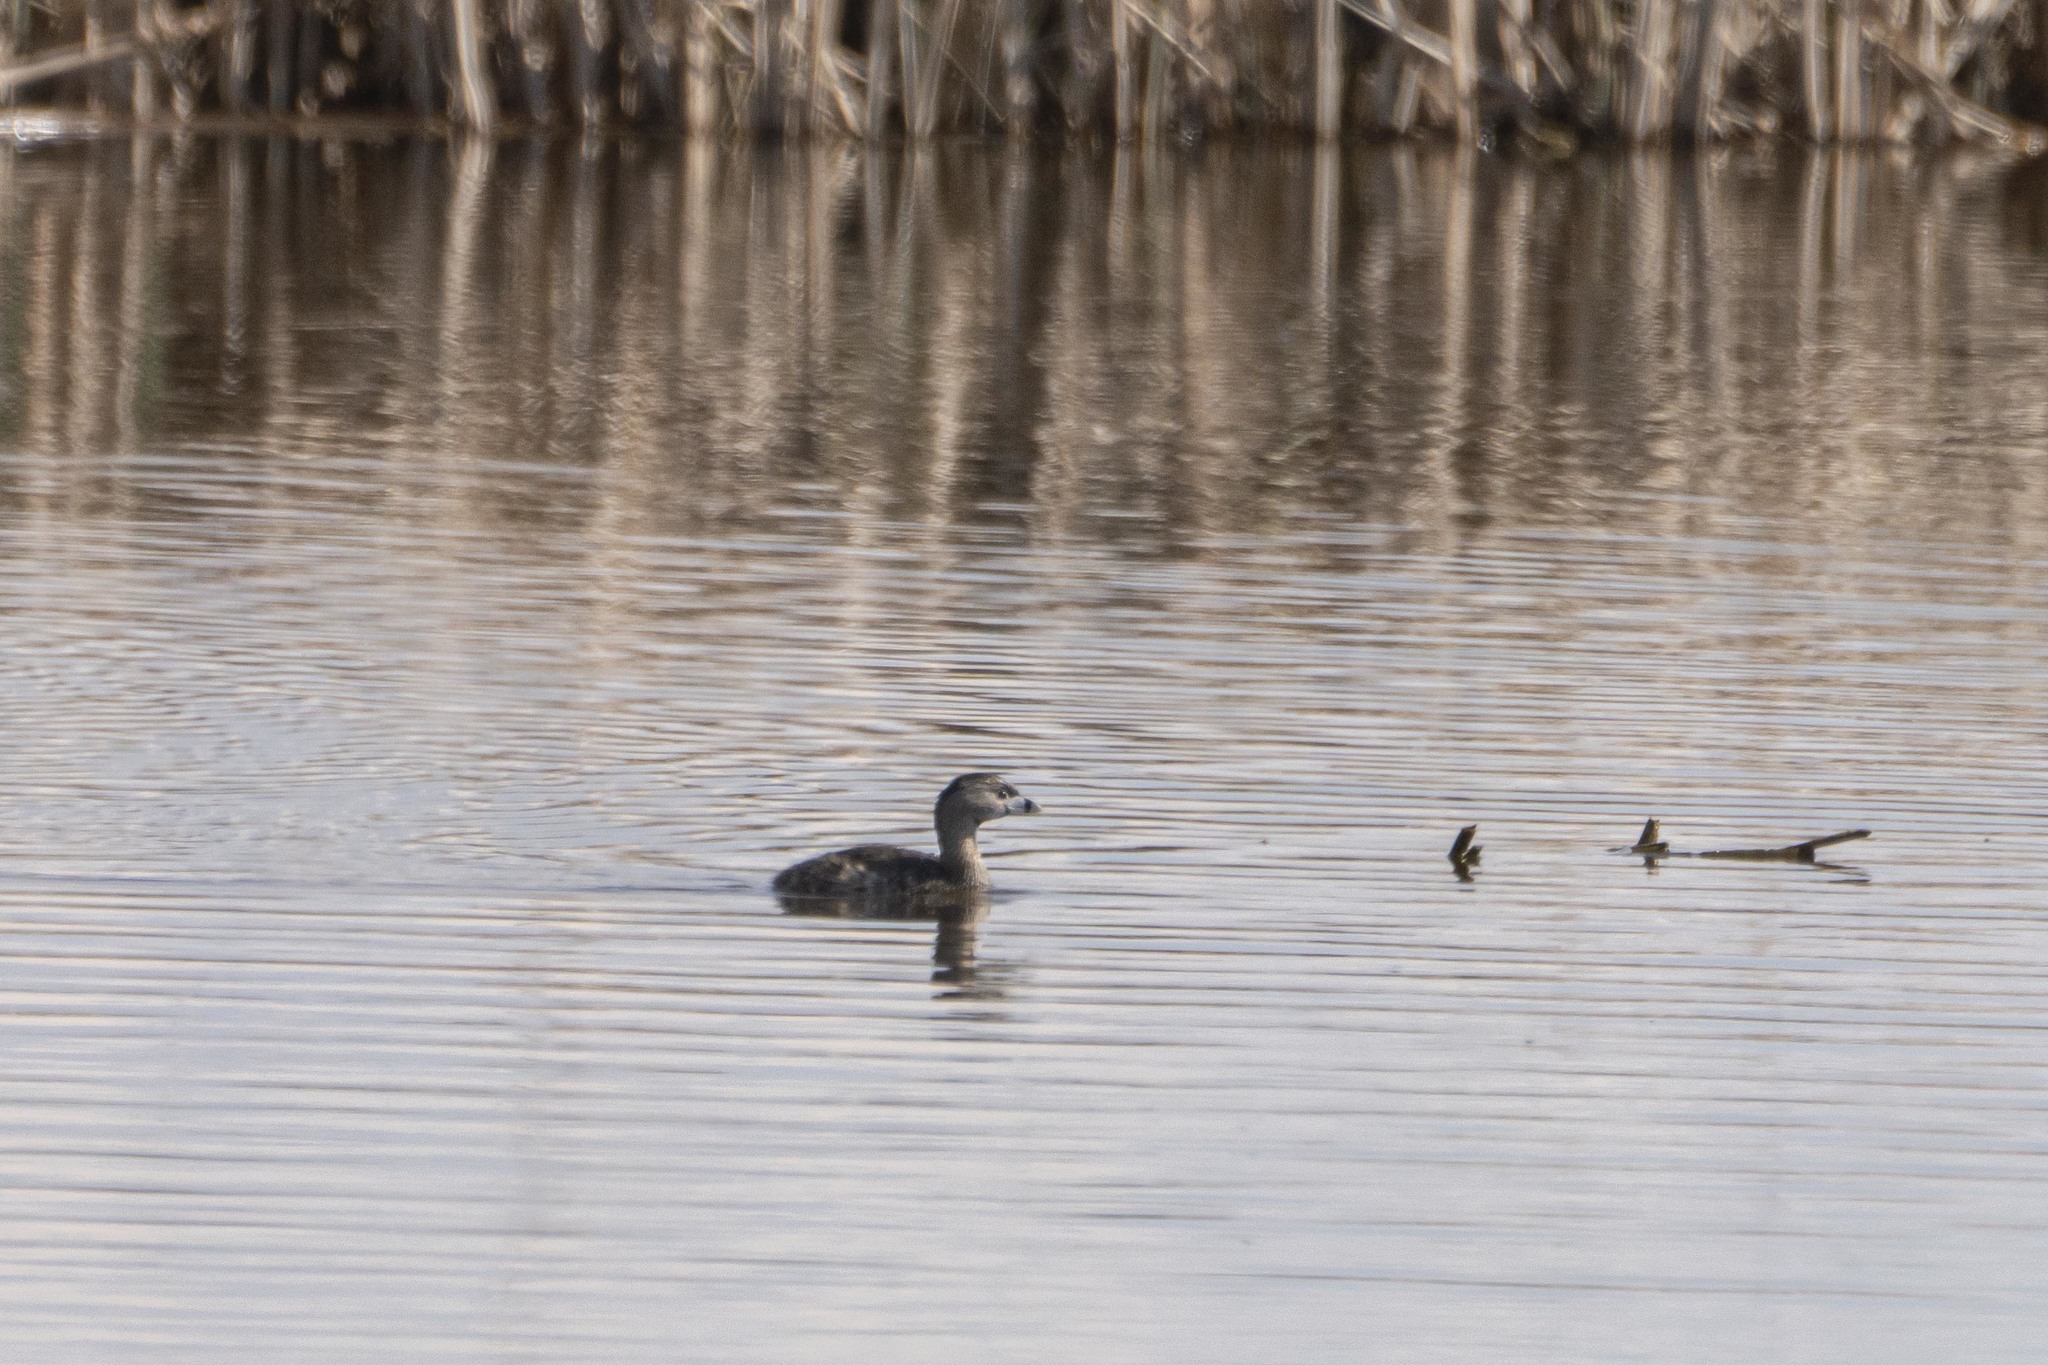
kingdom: Animalia
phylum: Chordata
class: Aves
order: Podicipediformes
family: Podicipedidae
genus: Podilymbus
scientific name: Podilymbus podiceps
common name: Pied-billed grebe
